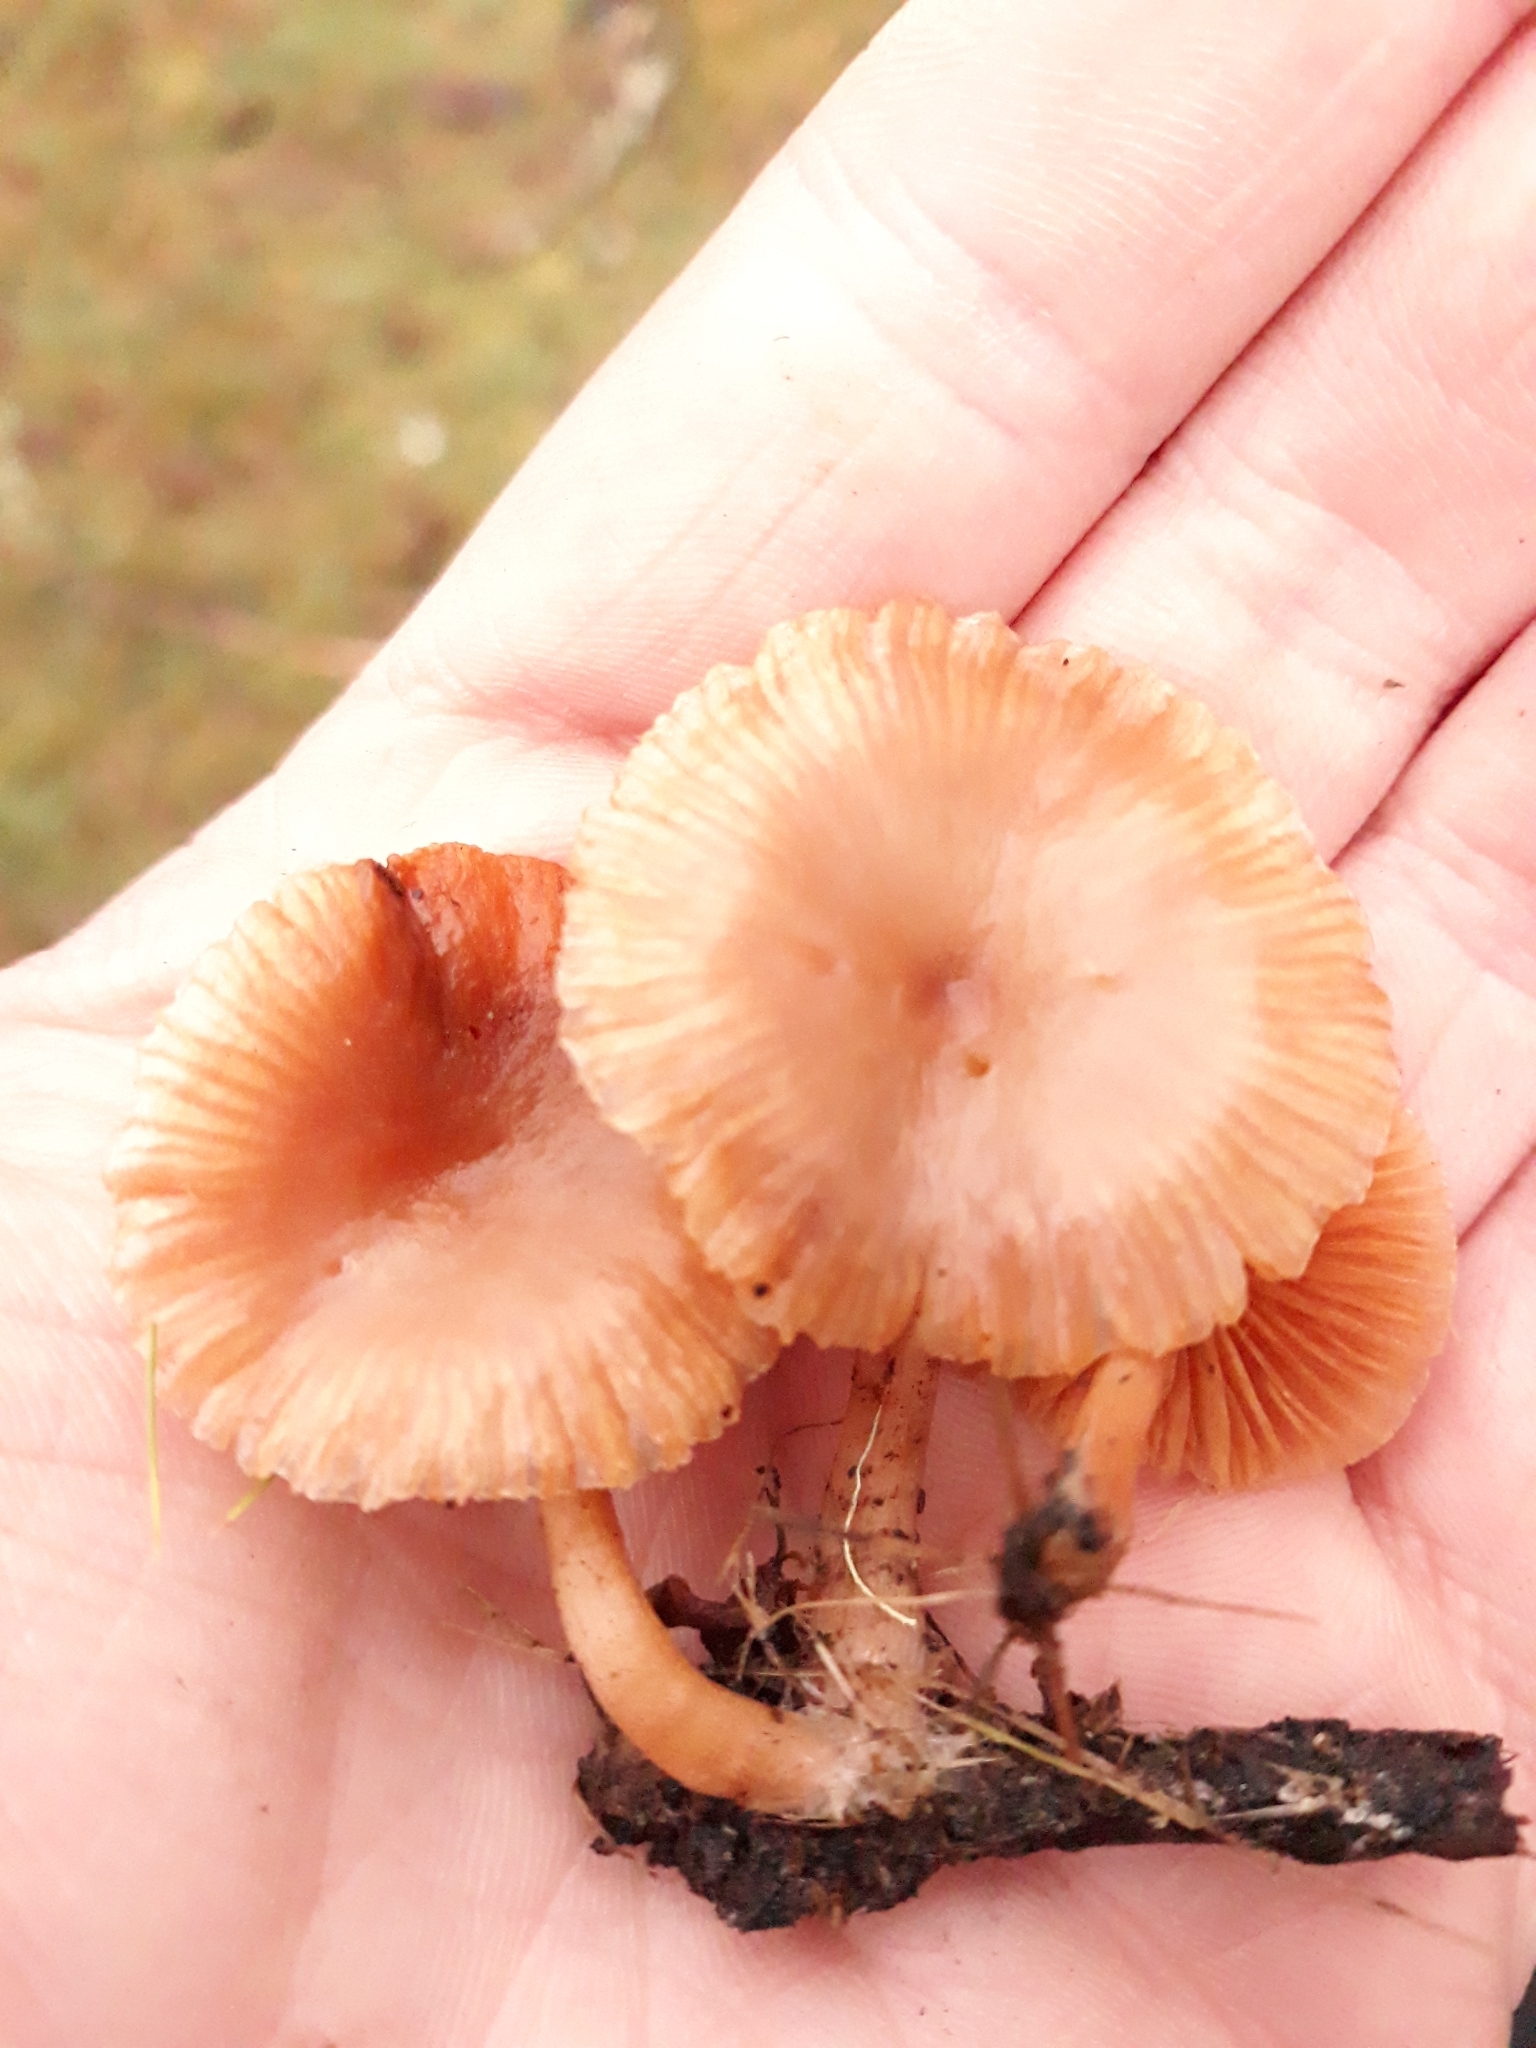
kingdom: Fungi
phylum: Basidiomycota
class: Agaricomycetes
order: Agaricales
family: Tubariaceae
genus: Tubaria
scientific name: Tubaria furfuracea
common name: Scurfy twiglet
